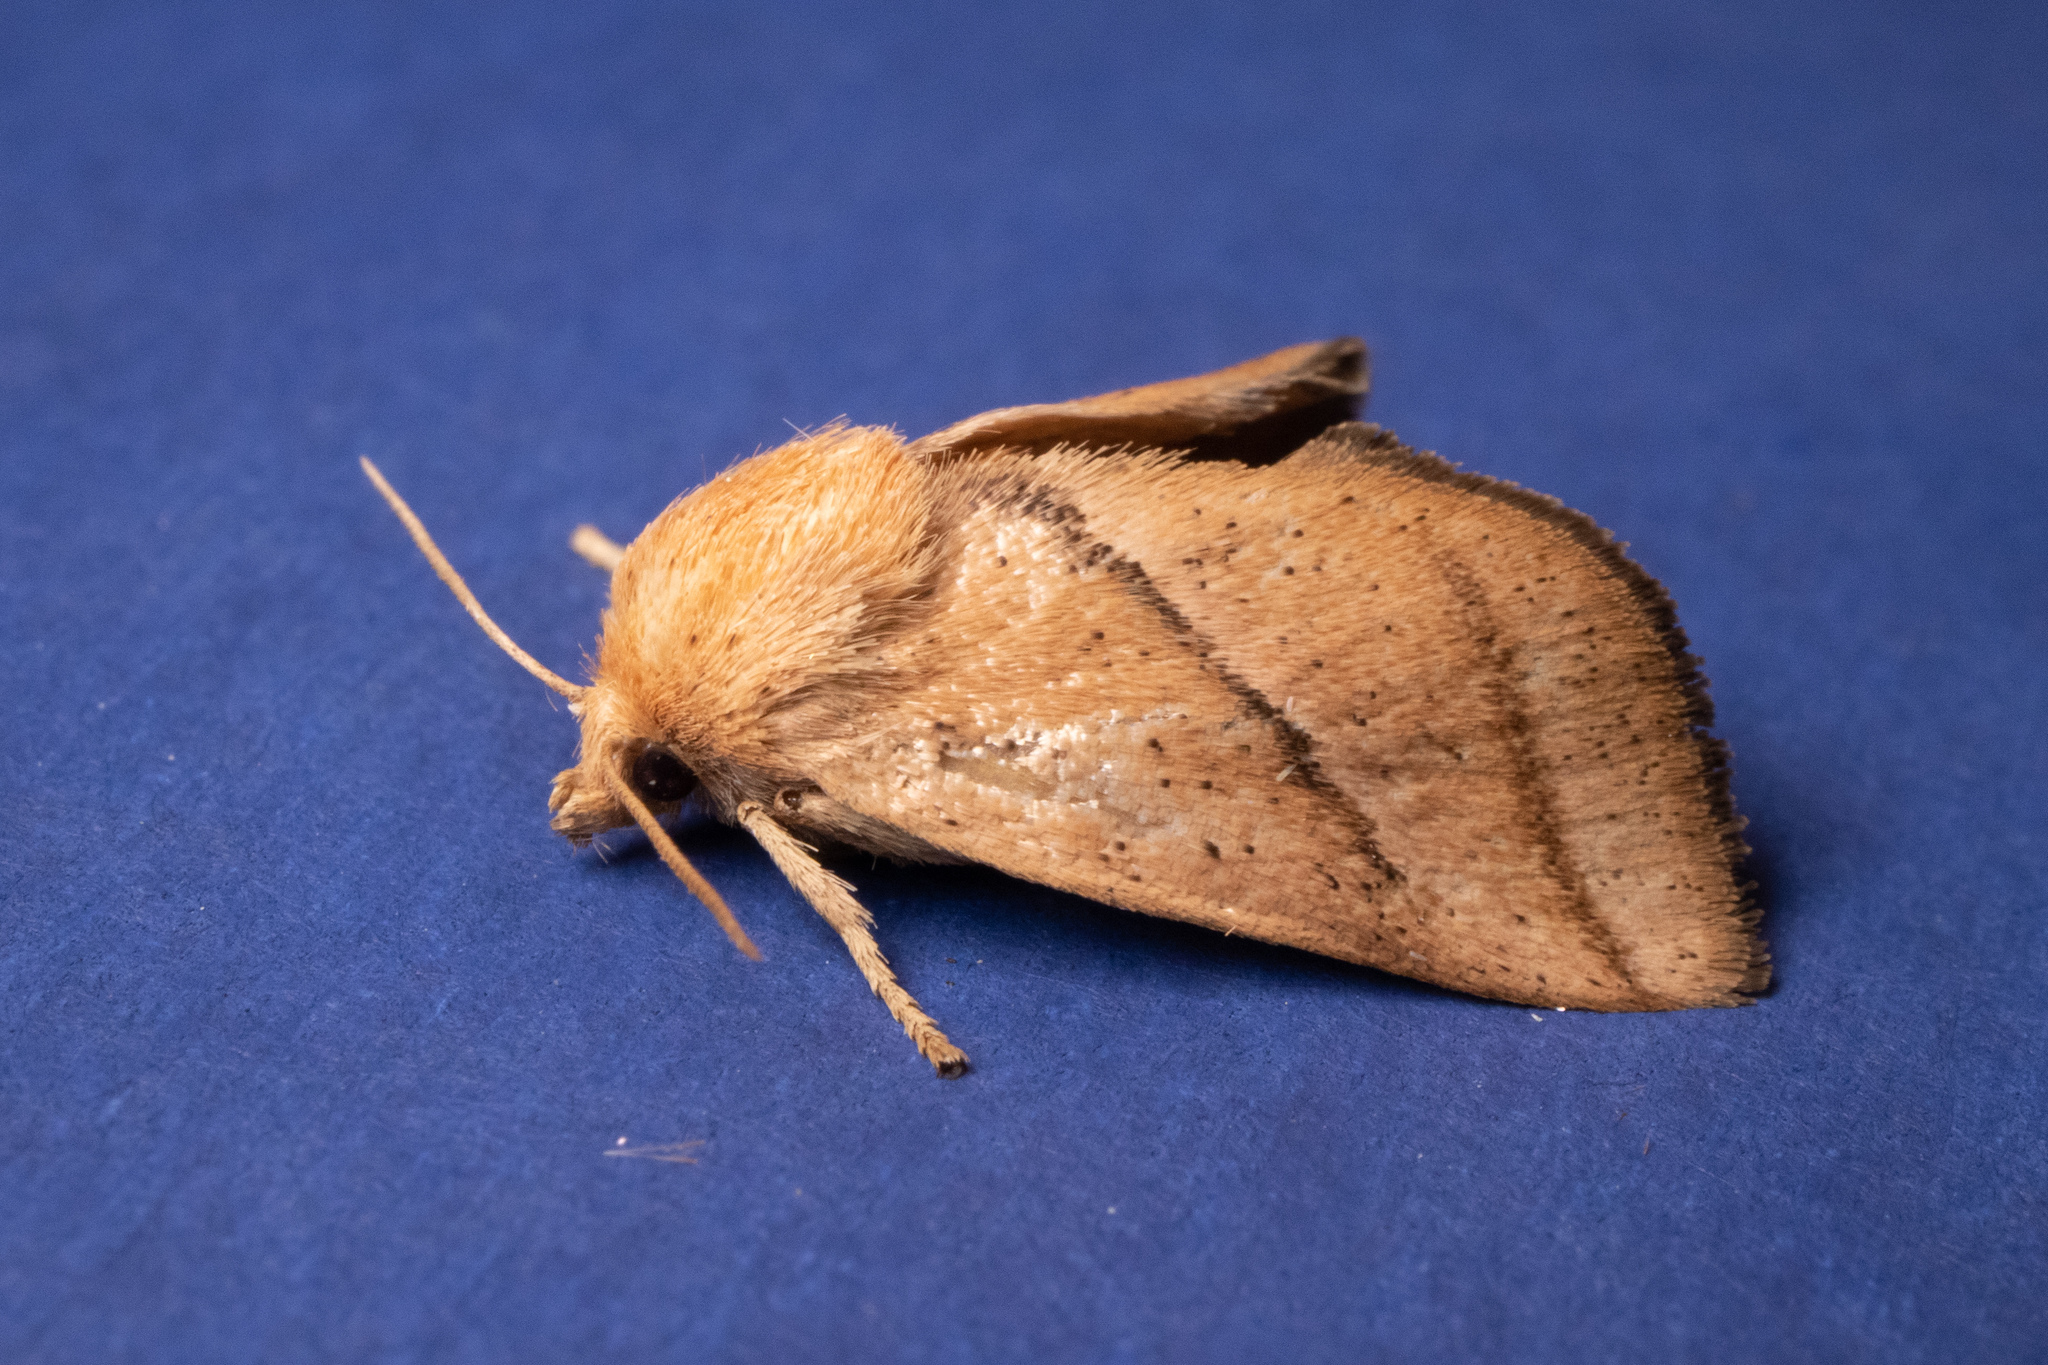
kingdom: Animalia
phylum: Arthropoda
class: Insecta
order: Lepidoptera
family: Limacodidae
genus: Natada
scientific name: Natada nasoni
